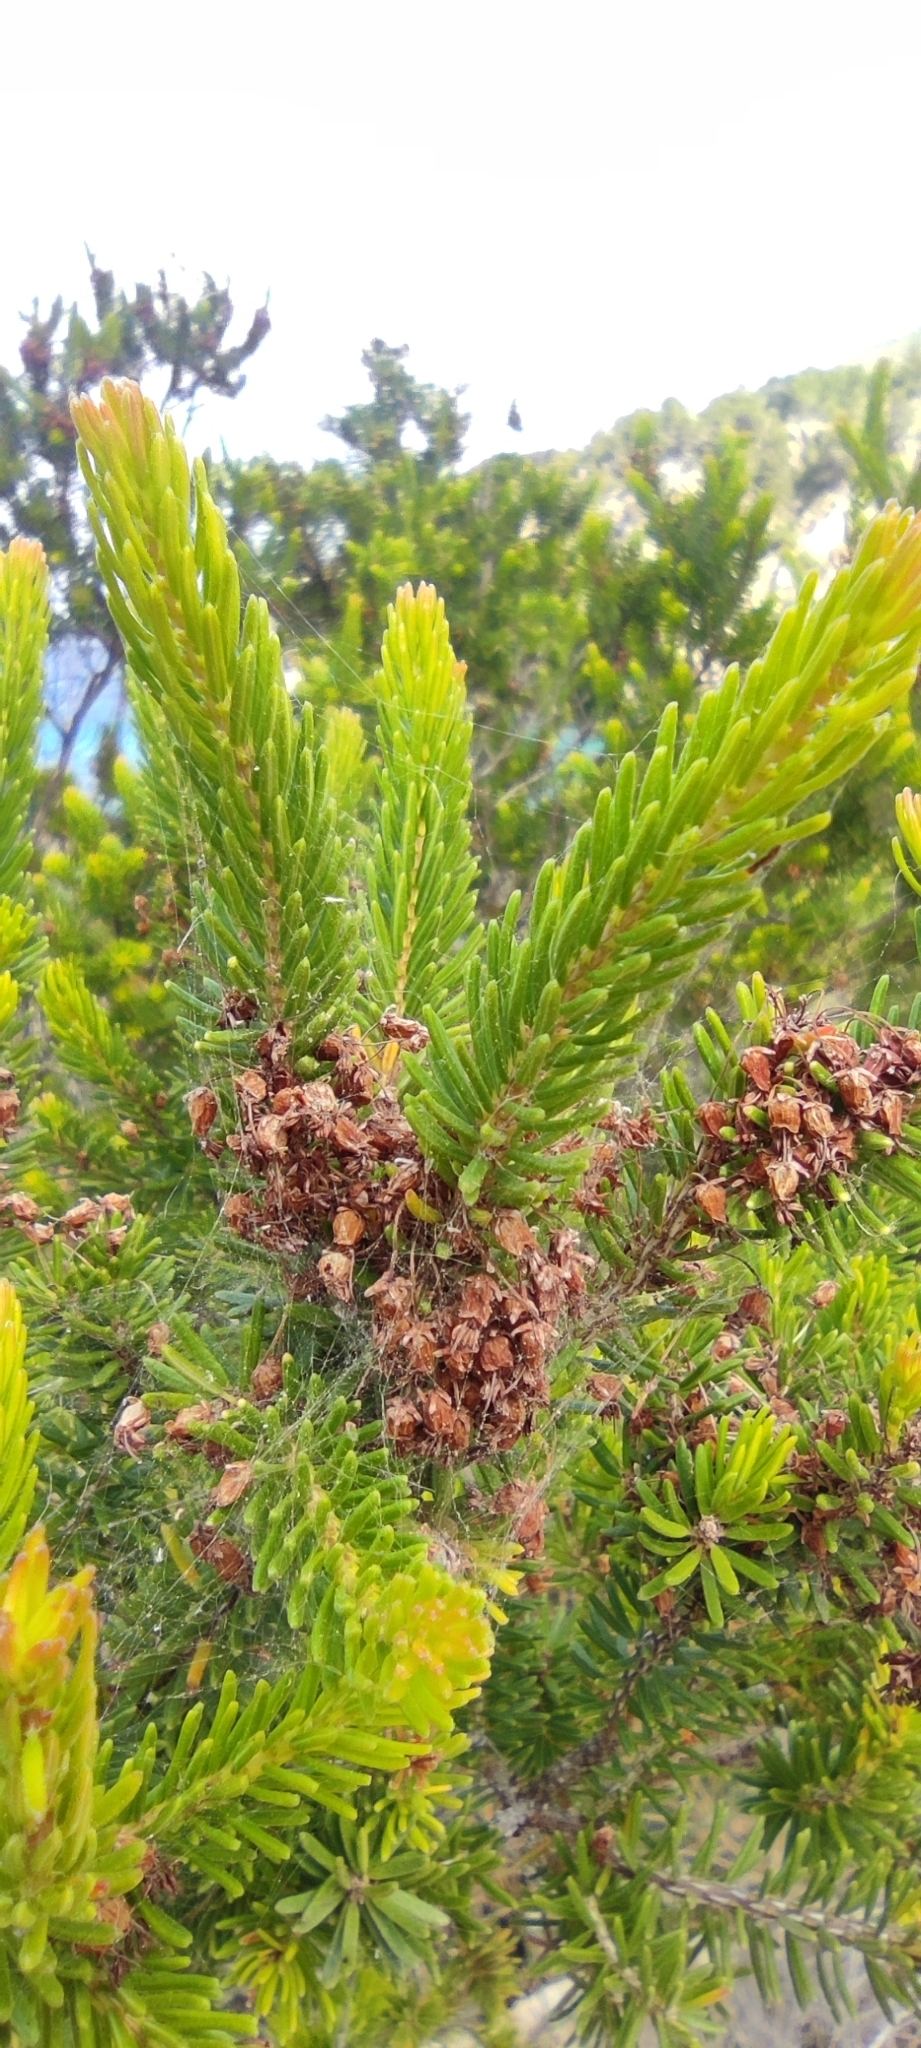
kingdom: Plantae
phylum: Tracheophyta
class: Magnoliopsida
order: Ericales
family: Ericaceae
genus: Erica
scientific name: Erica multiflora
